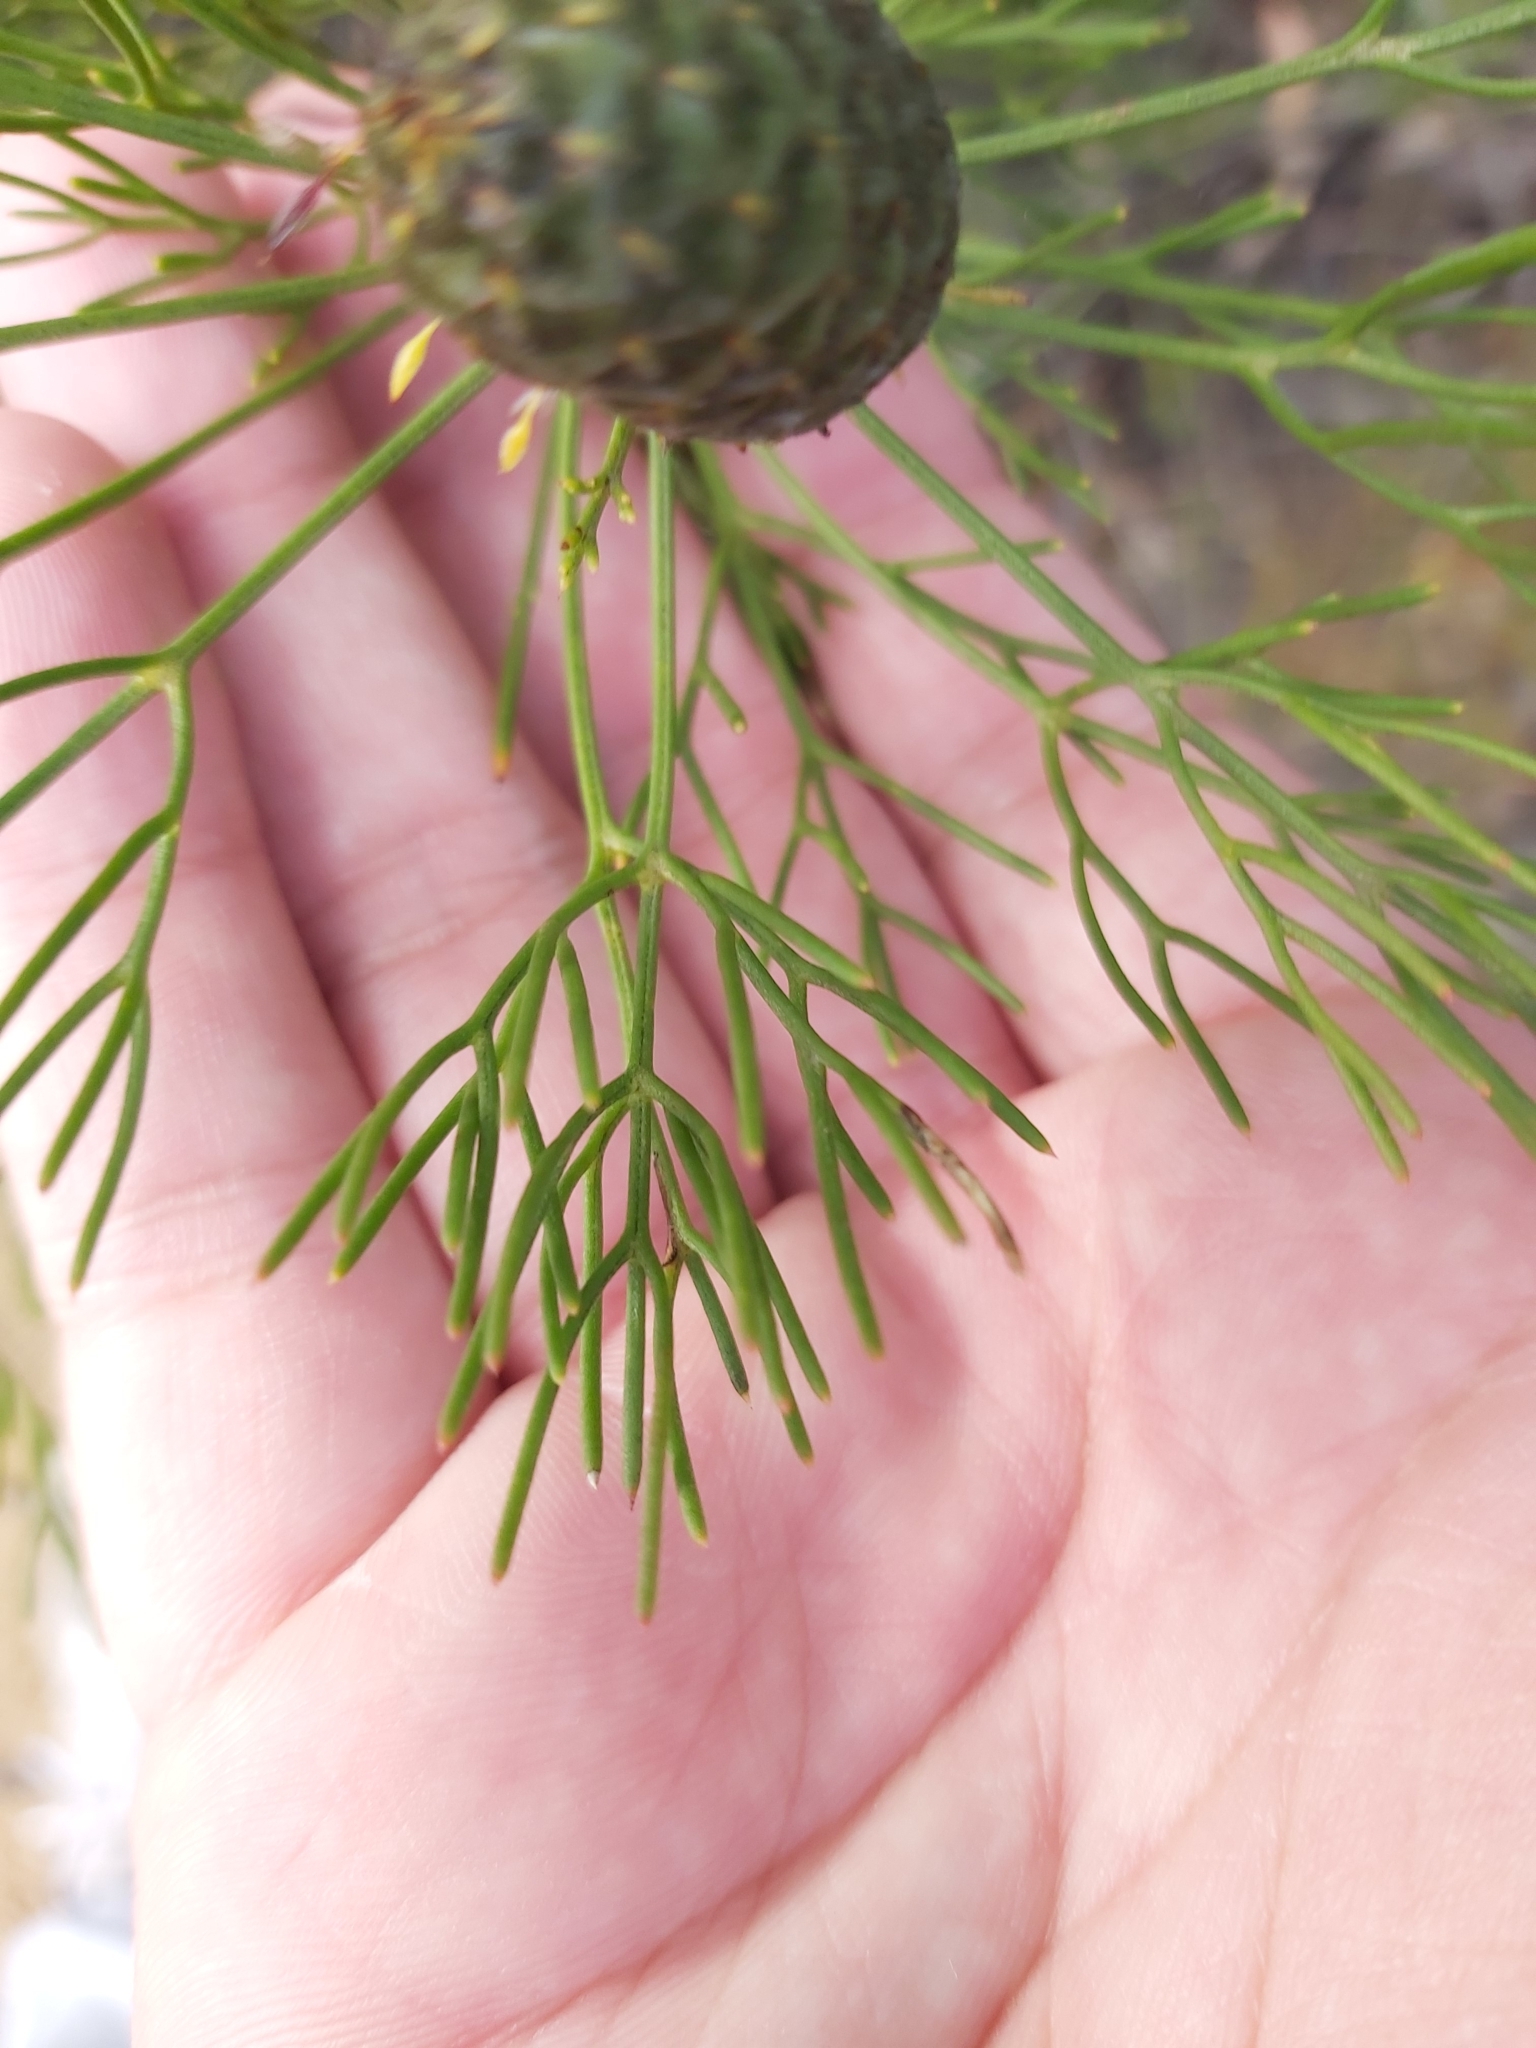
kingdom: Plantae
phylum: Tracheophyta
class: Magnoliopsida
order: Proteales
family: Proteaceae
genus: Petrophile
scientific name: Petrophile pulchella
